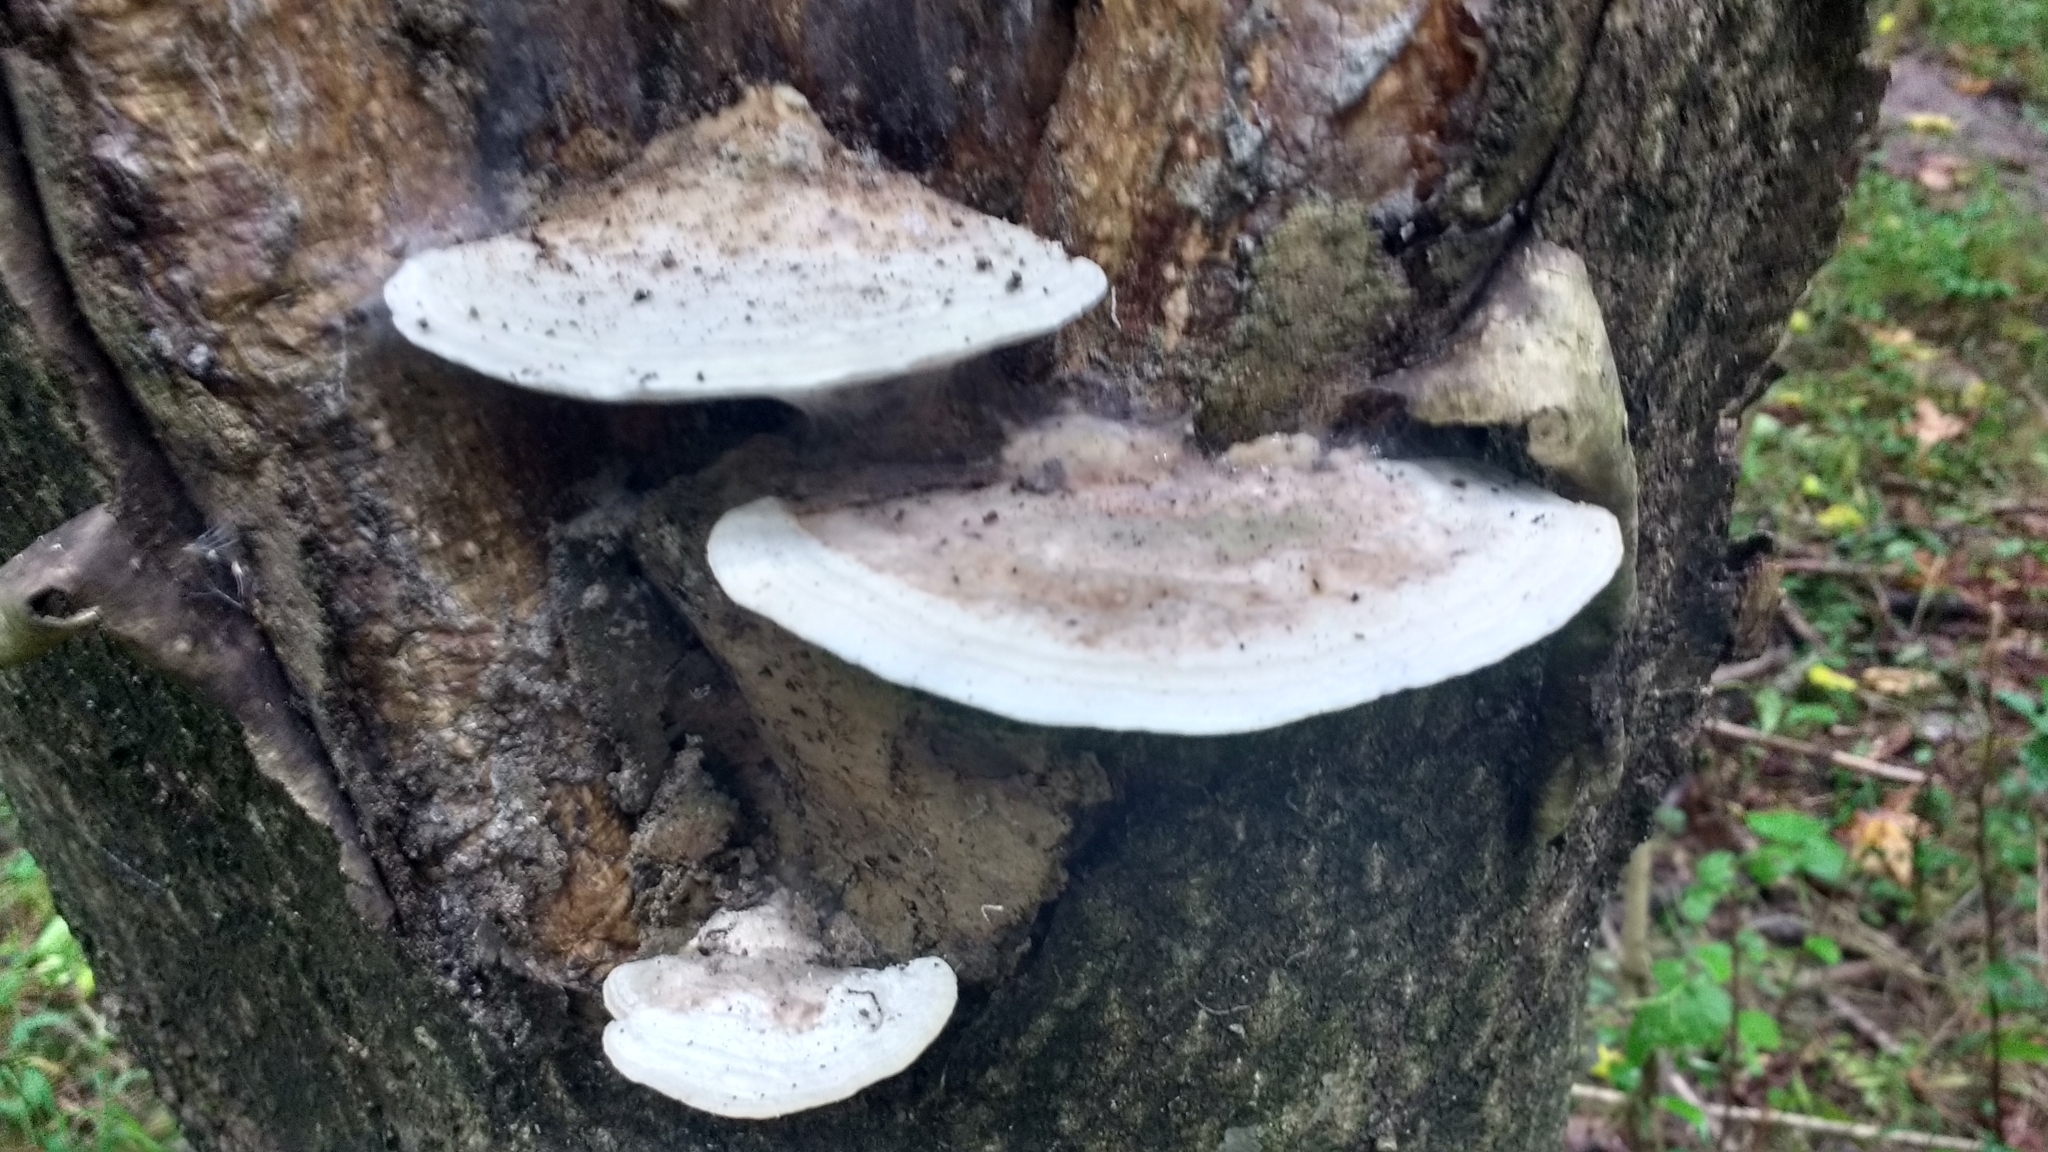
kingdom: Fungi
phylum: Basidiomycota
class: Agaricomycetes
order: Polyporales
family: Polyporaceae
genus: Trametes
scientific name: Trametes gibbosa
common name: Lumpy bracket
